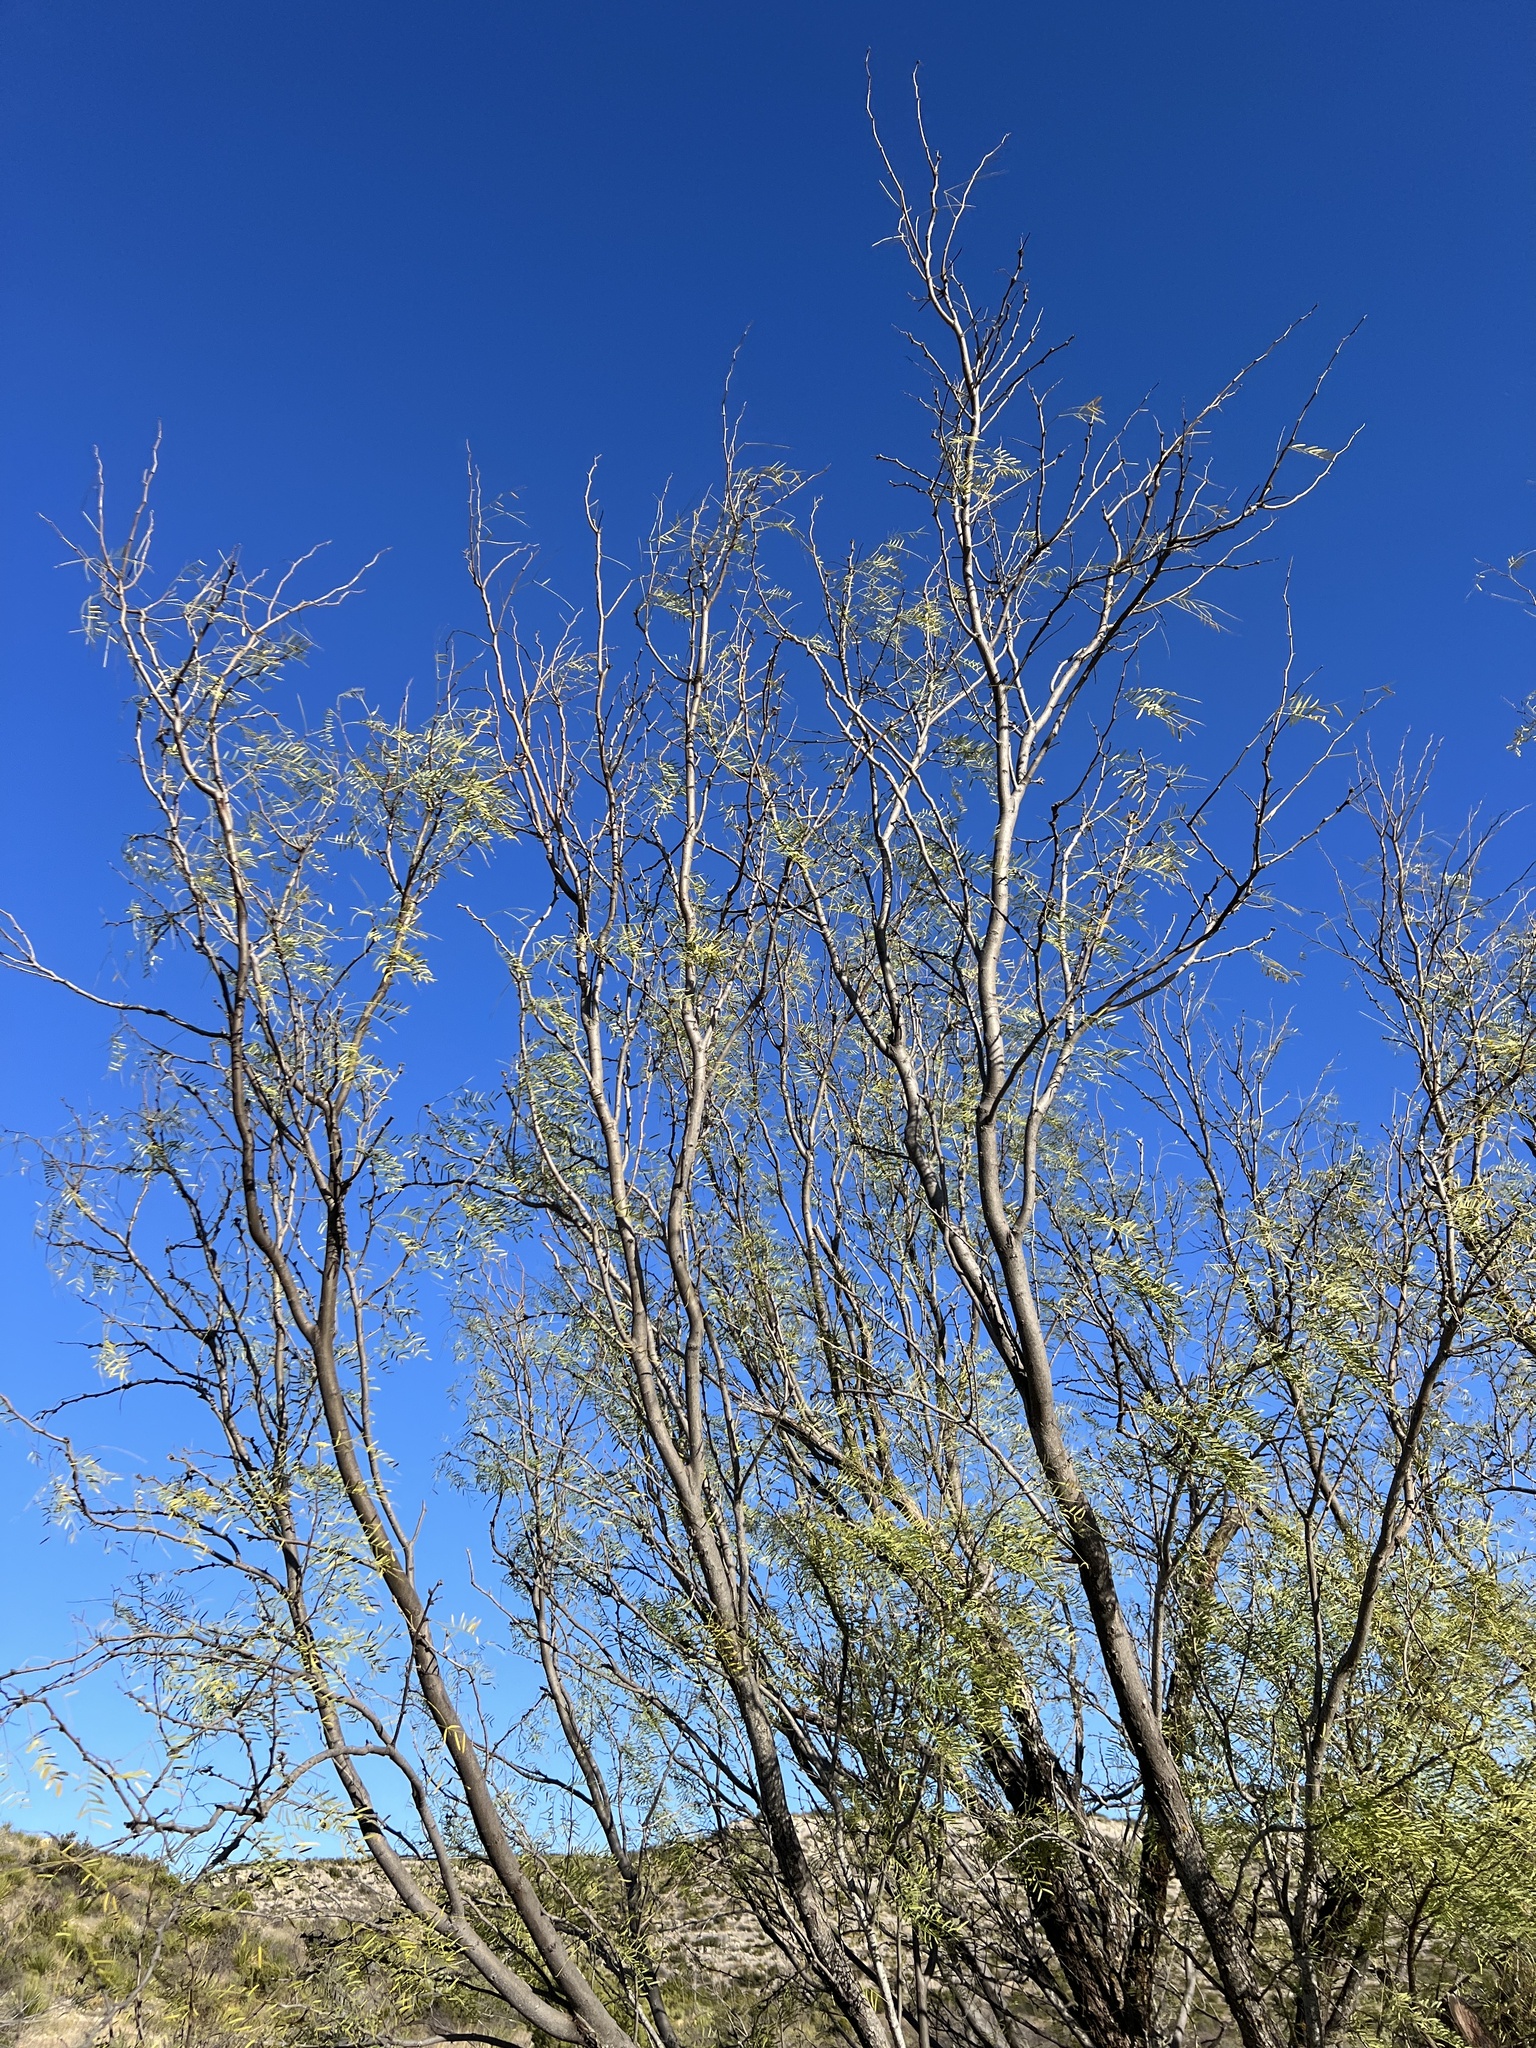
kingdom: Plantae
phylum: Tracheophyta
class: Magnoliopsida
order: Fabales
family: Fabaceae
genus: Prosopis
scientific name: Prosopis glandulosa
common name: Honey mesquite
